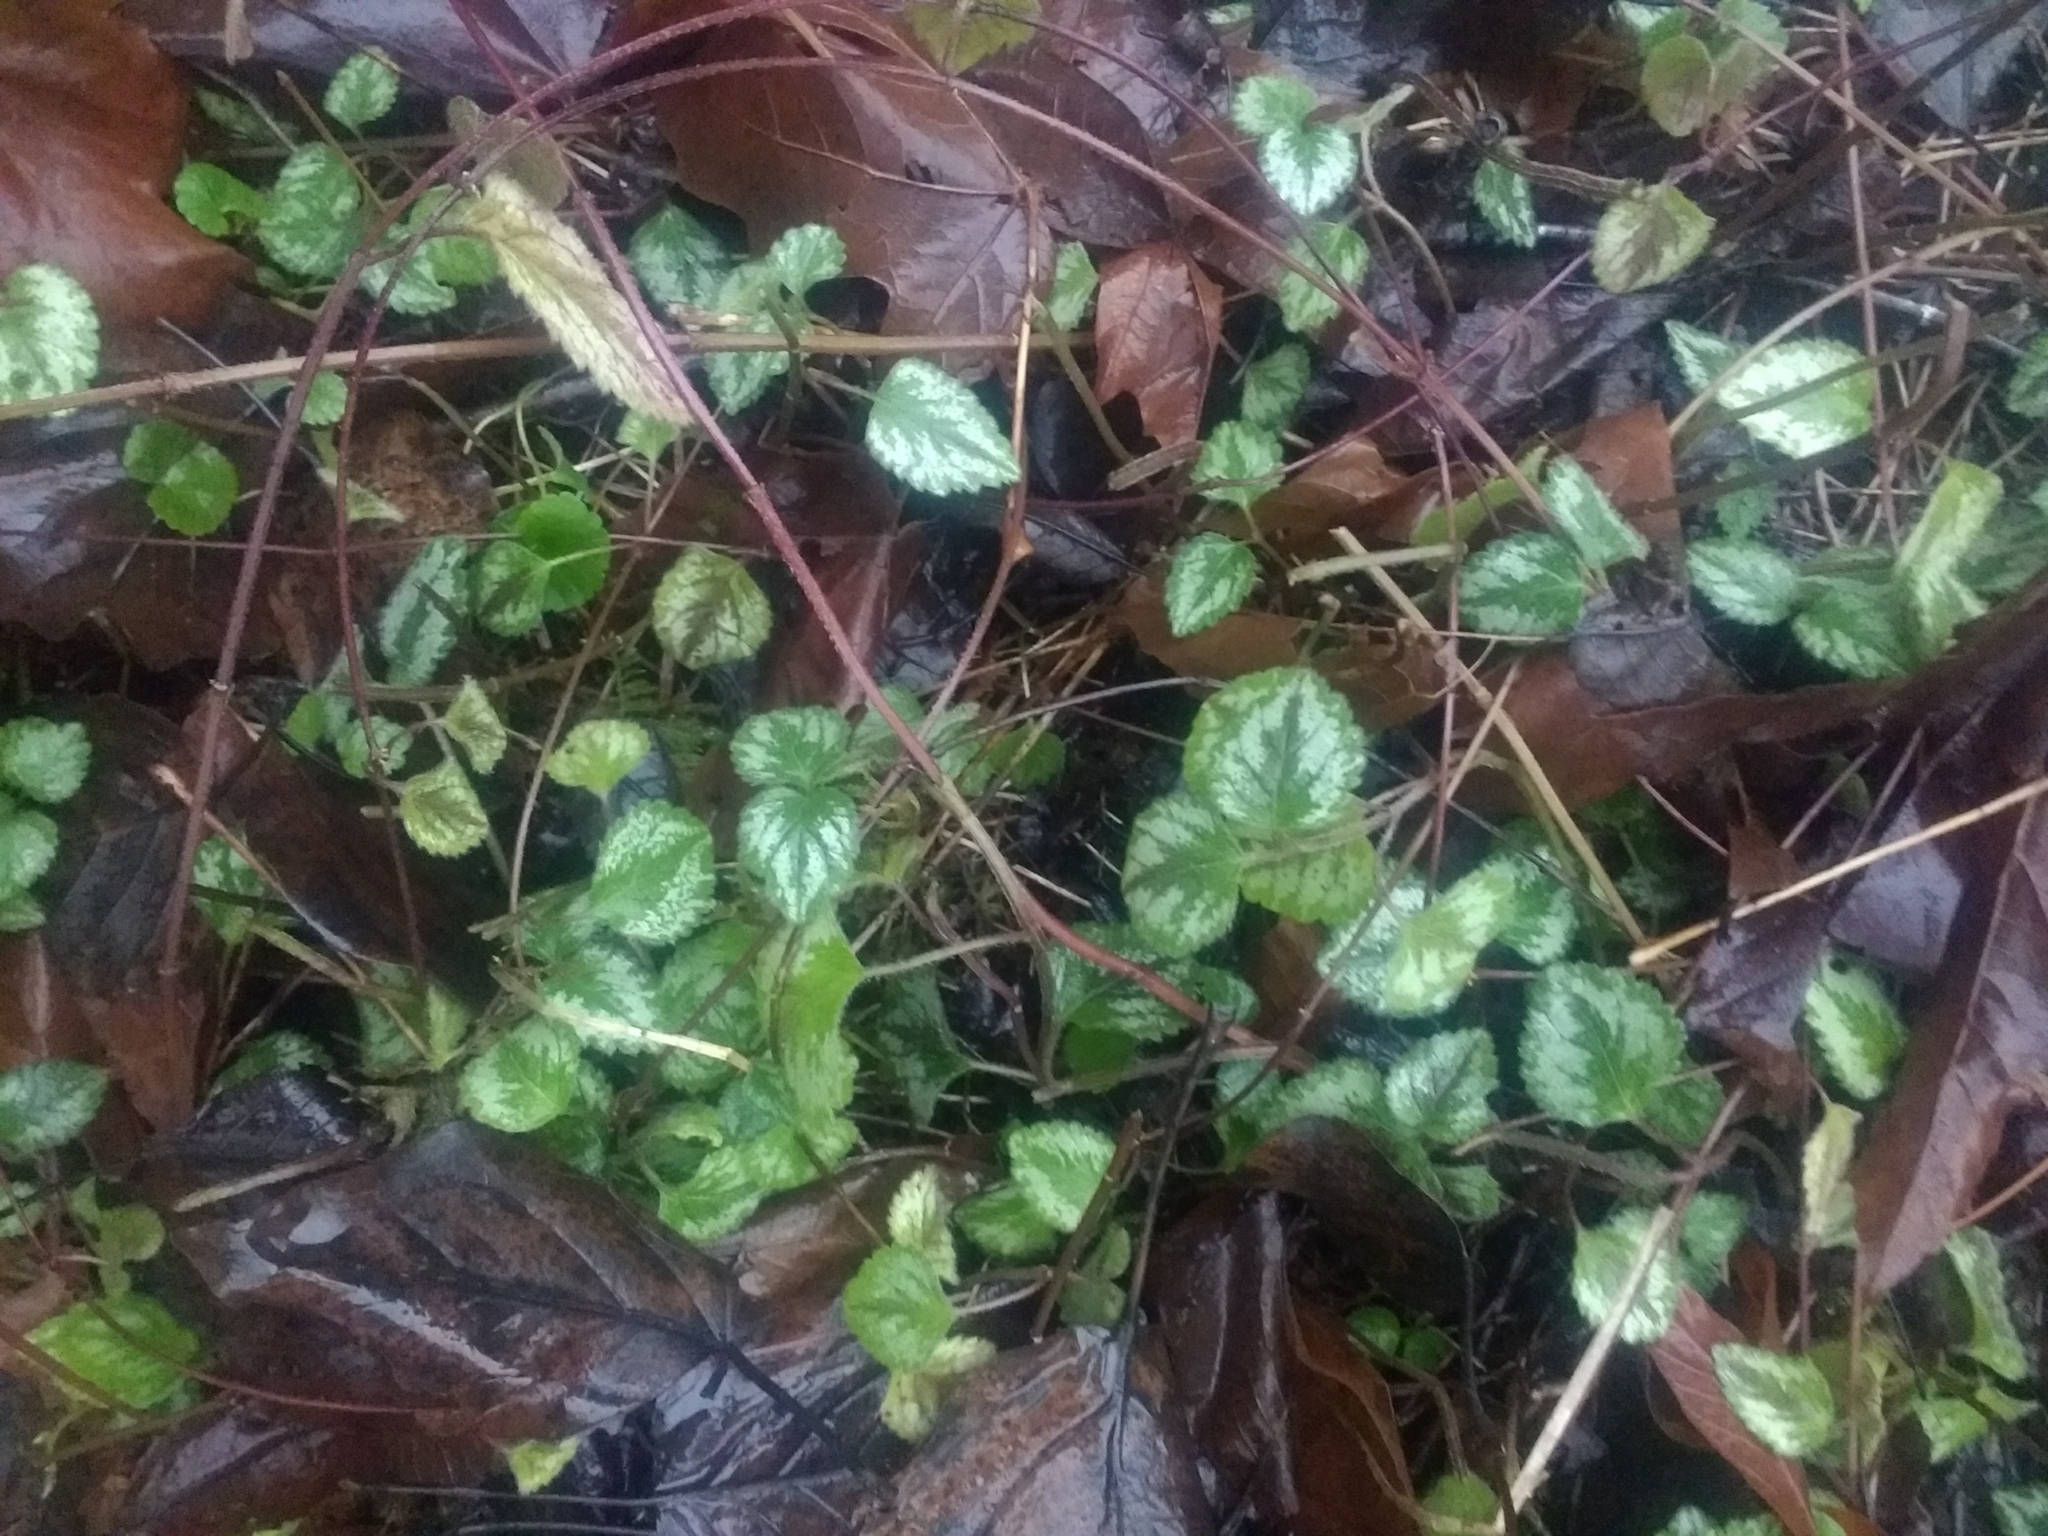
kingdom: Plantae
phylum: Tracheophyta
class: Magnoliopsida
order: Lamiales
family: Lamiaceae
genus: Lamium
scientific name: Lamium galeobdolon
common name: Yellow archangel
